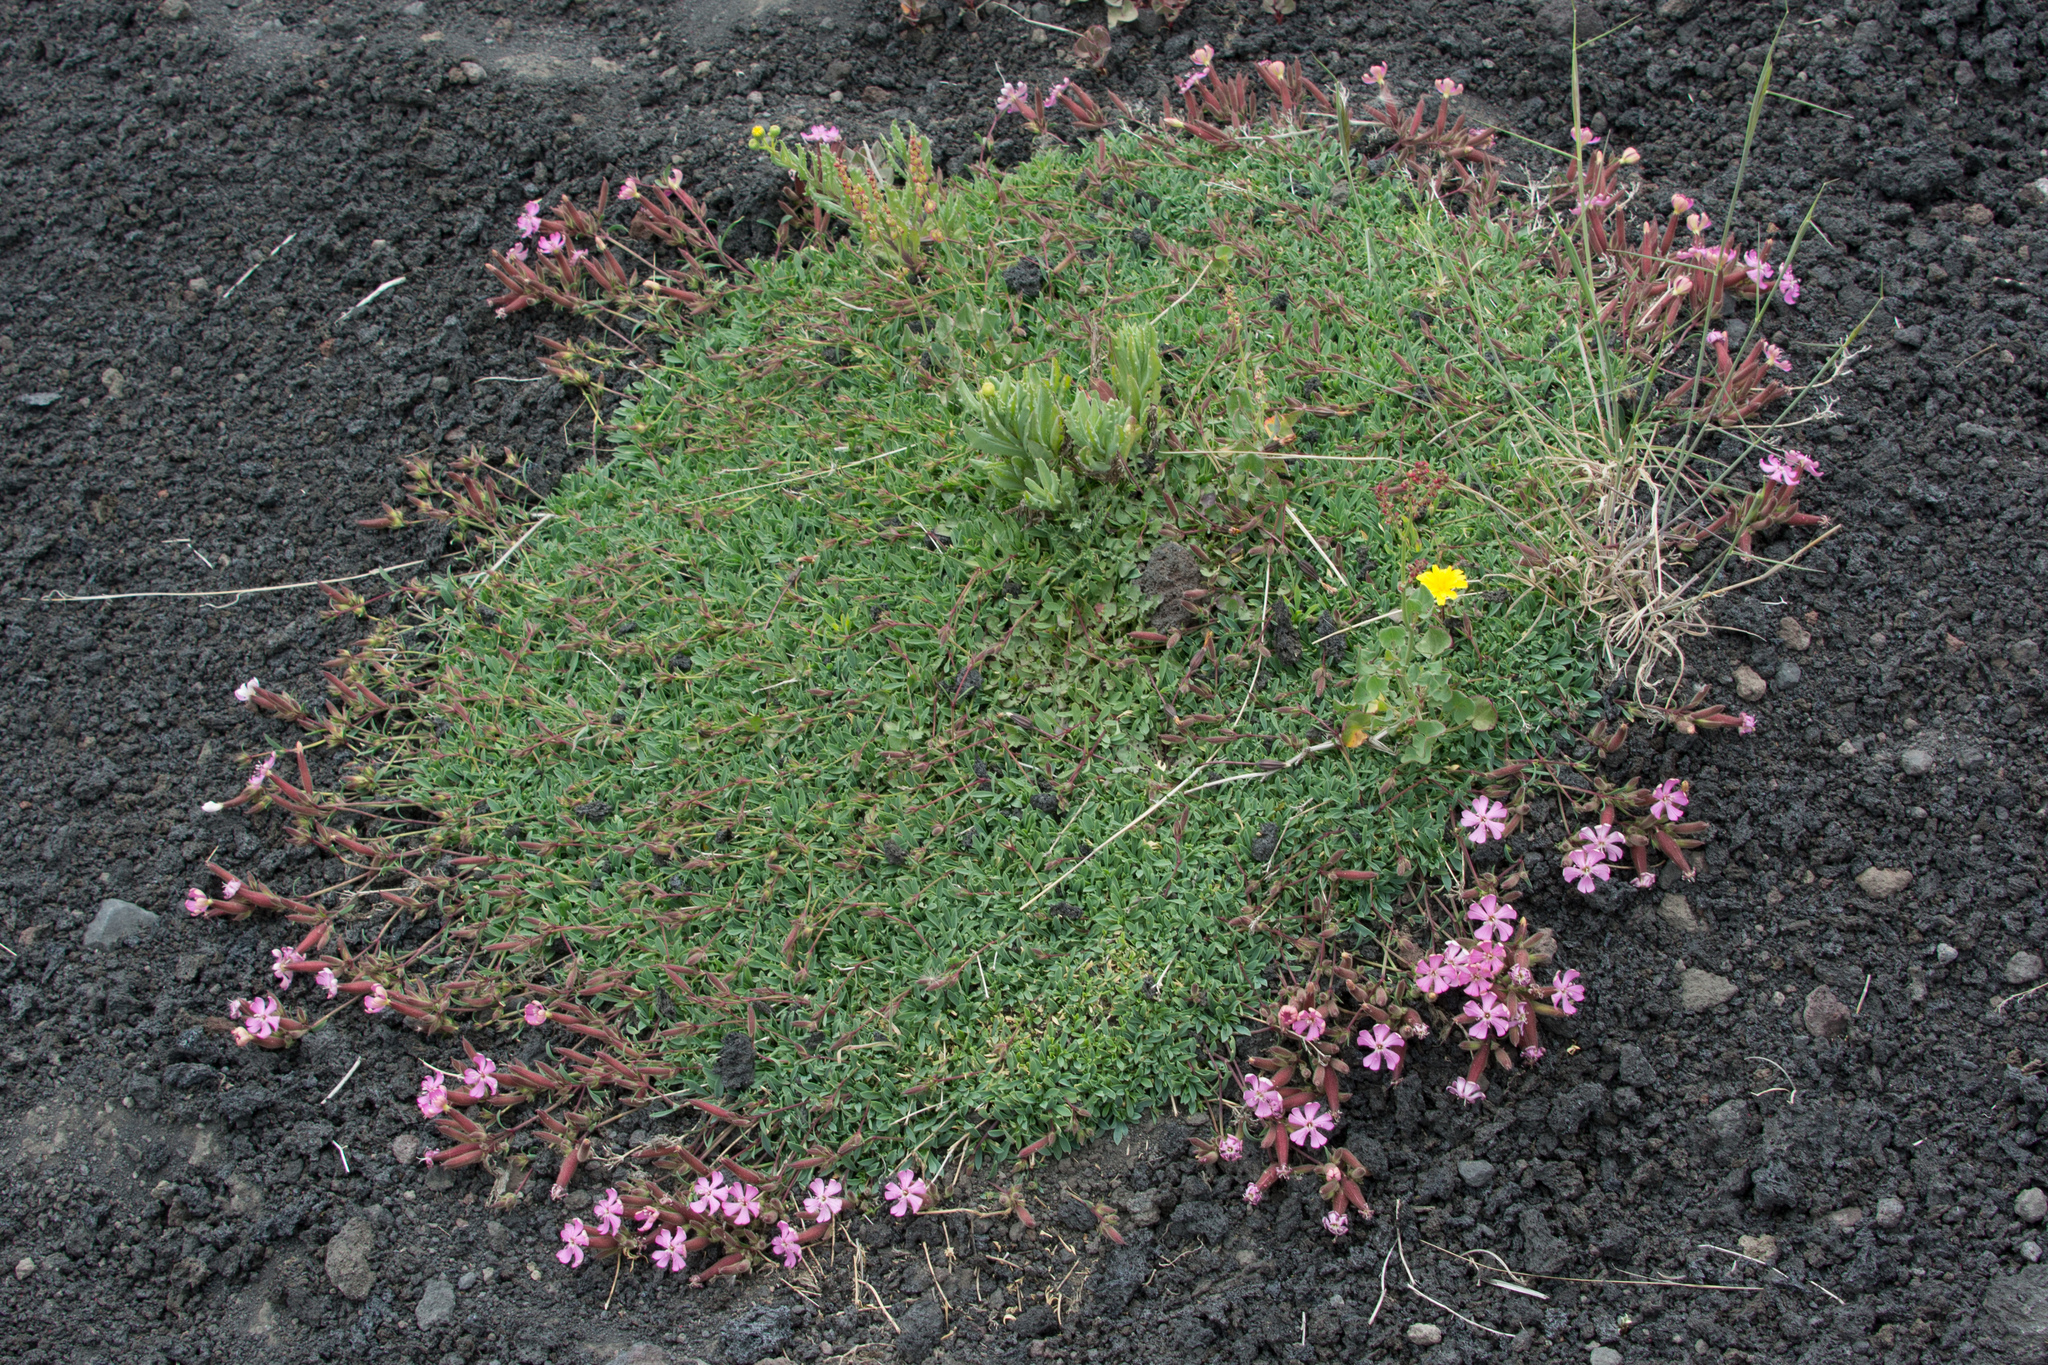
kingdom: Plantae
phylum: Tracheophyta
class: Magnoliopsida
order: Caryophyllales
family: Caryophyllaceae
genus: Saponaria
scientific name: Saponaria sicula
